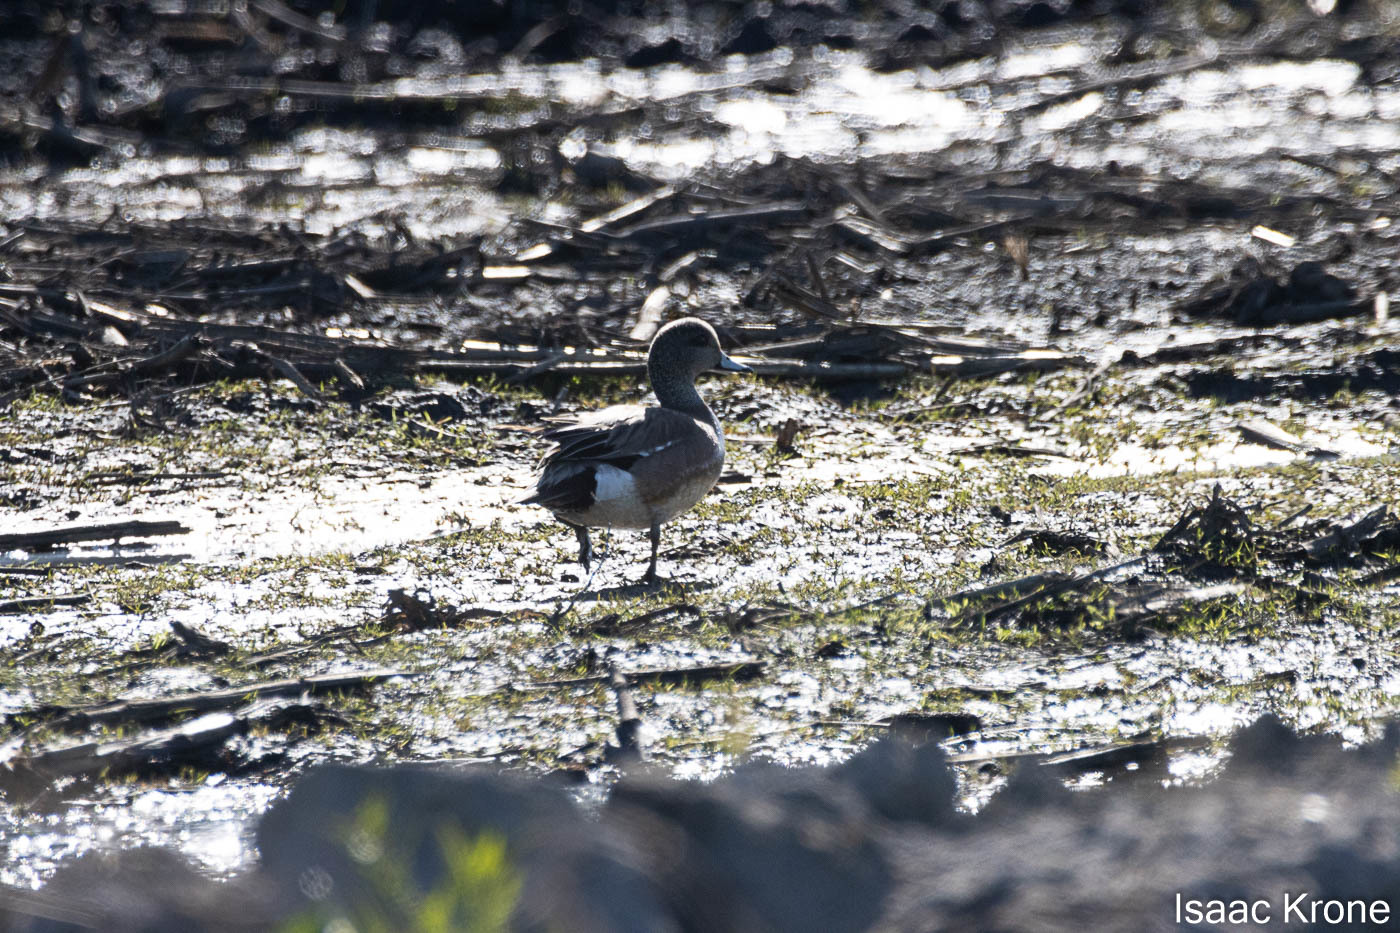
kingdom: Animalia
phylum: Chordata
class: Aves
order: Anseriformes
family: Anatidae
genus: Mareca
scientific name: Mareca americana
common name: American wigeon
